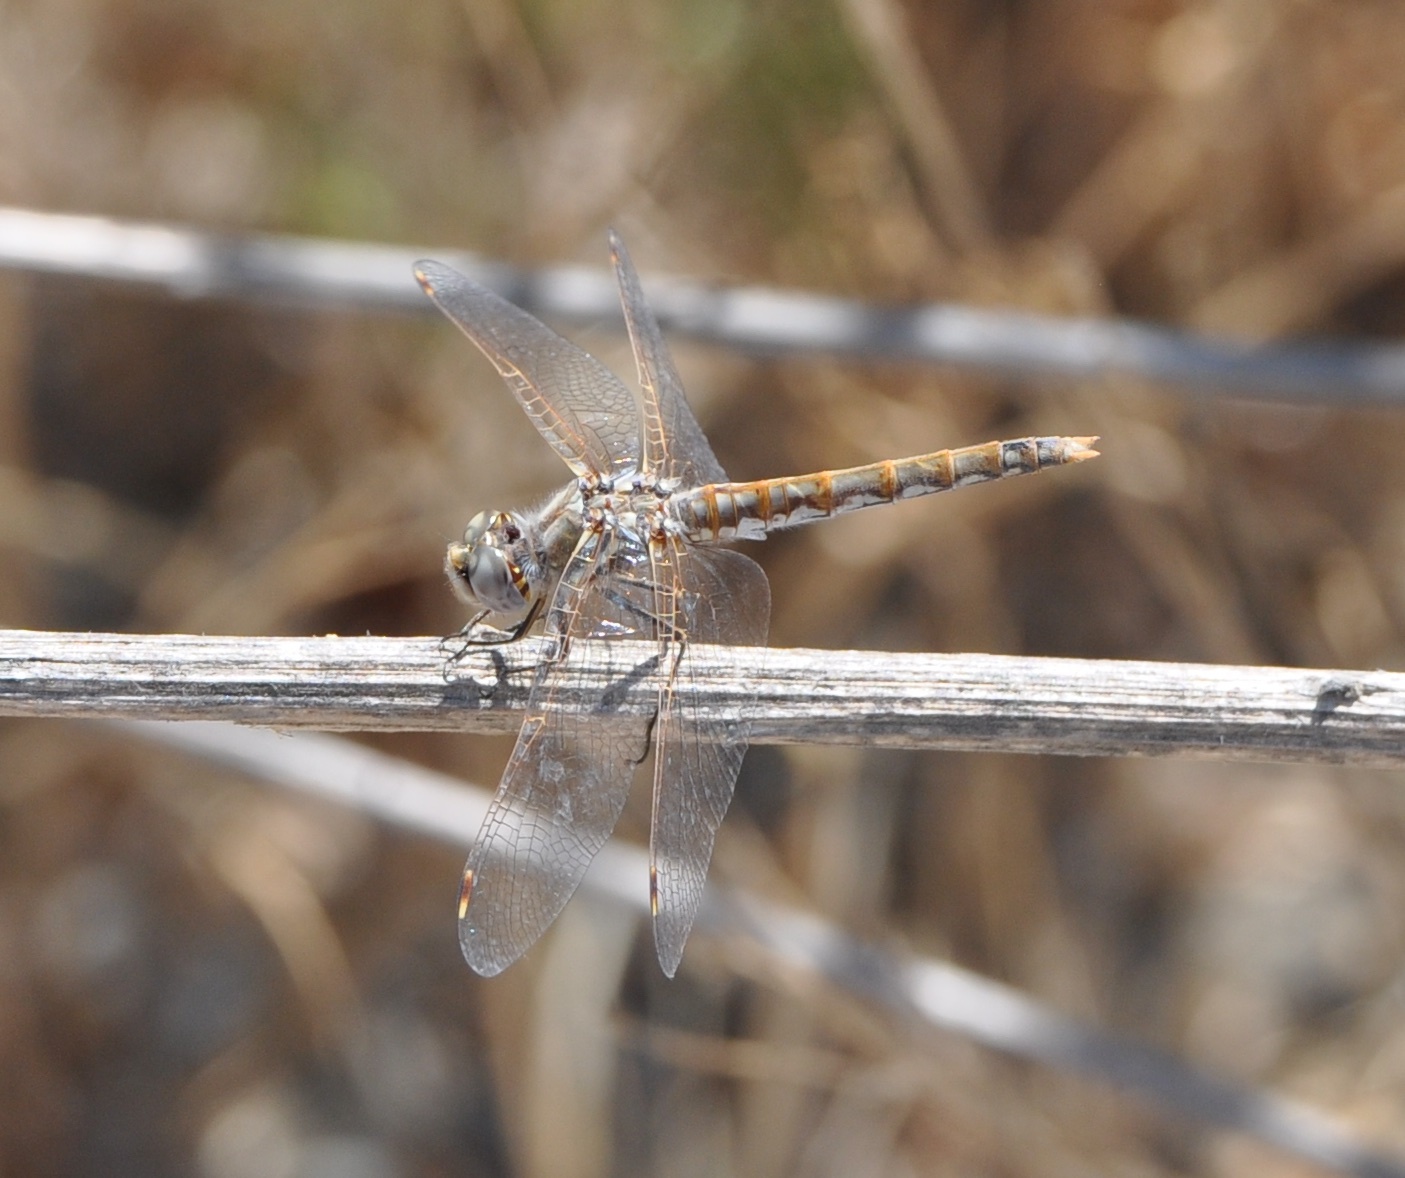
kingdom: Animalia
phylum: Arthropoda
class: Insecta
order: Odonata
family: Libellulidae
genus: Sympetrum
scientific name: Sympetrum corruptum
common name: Variegated meadowhawk
